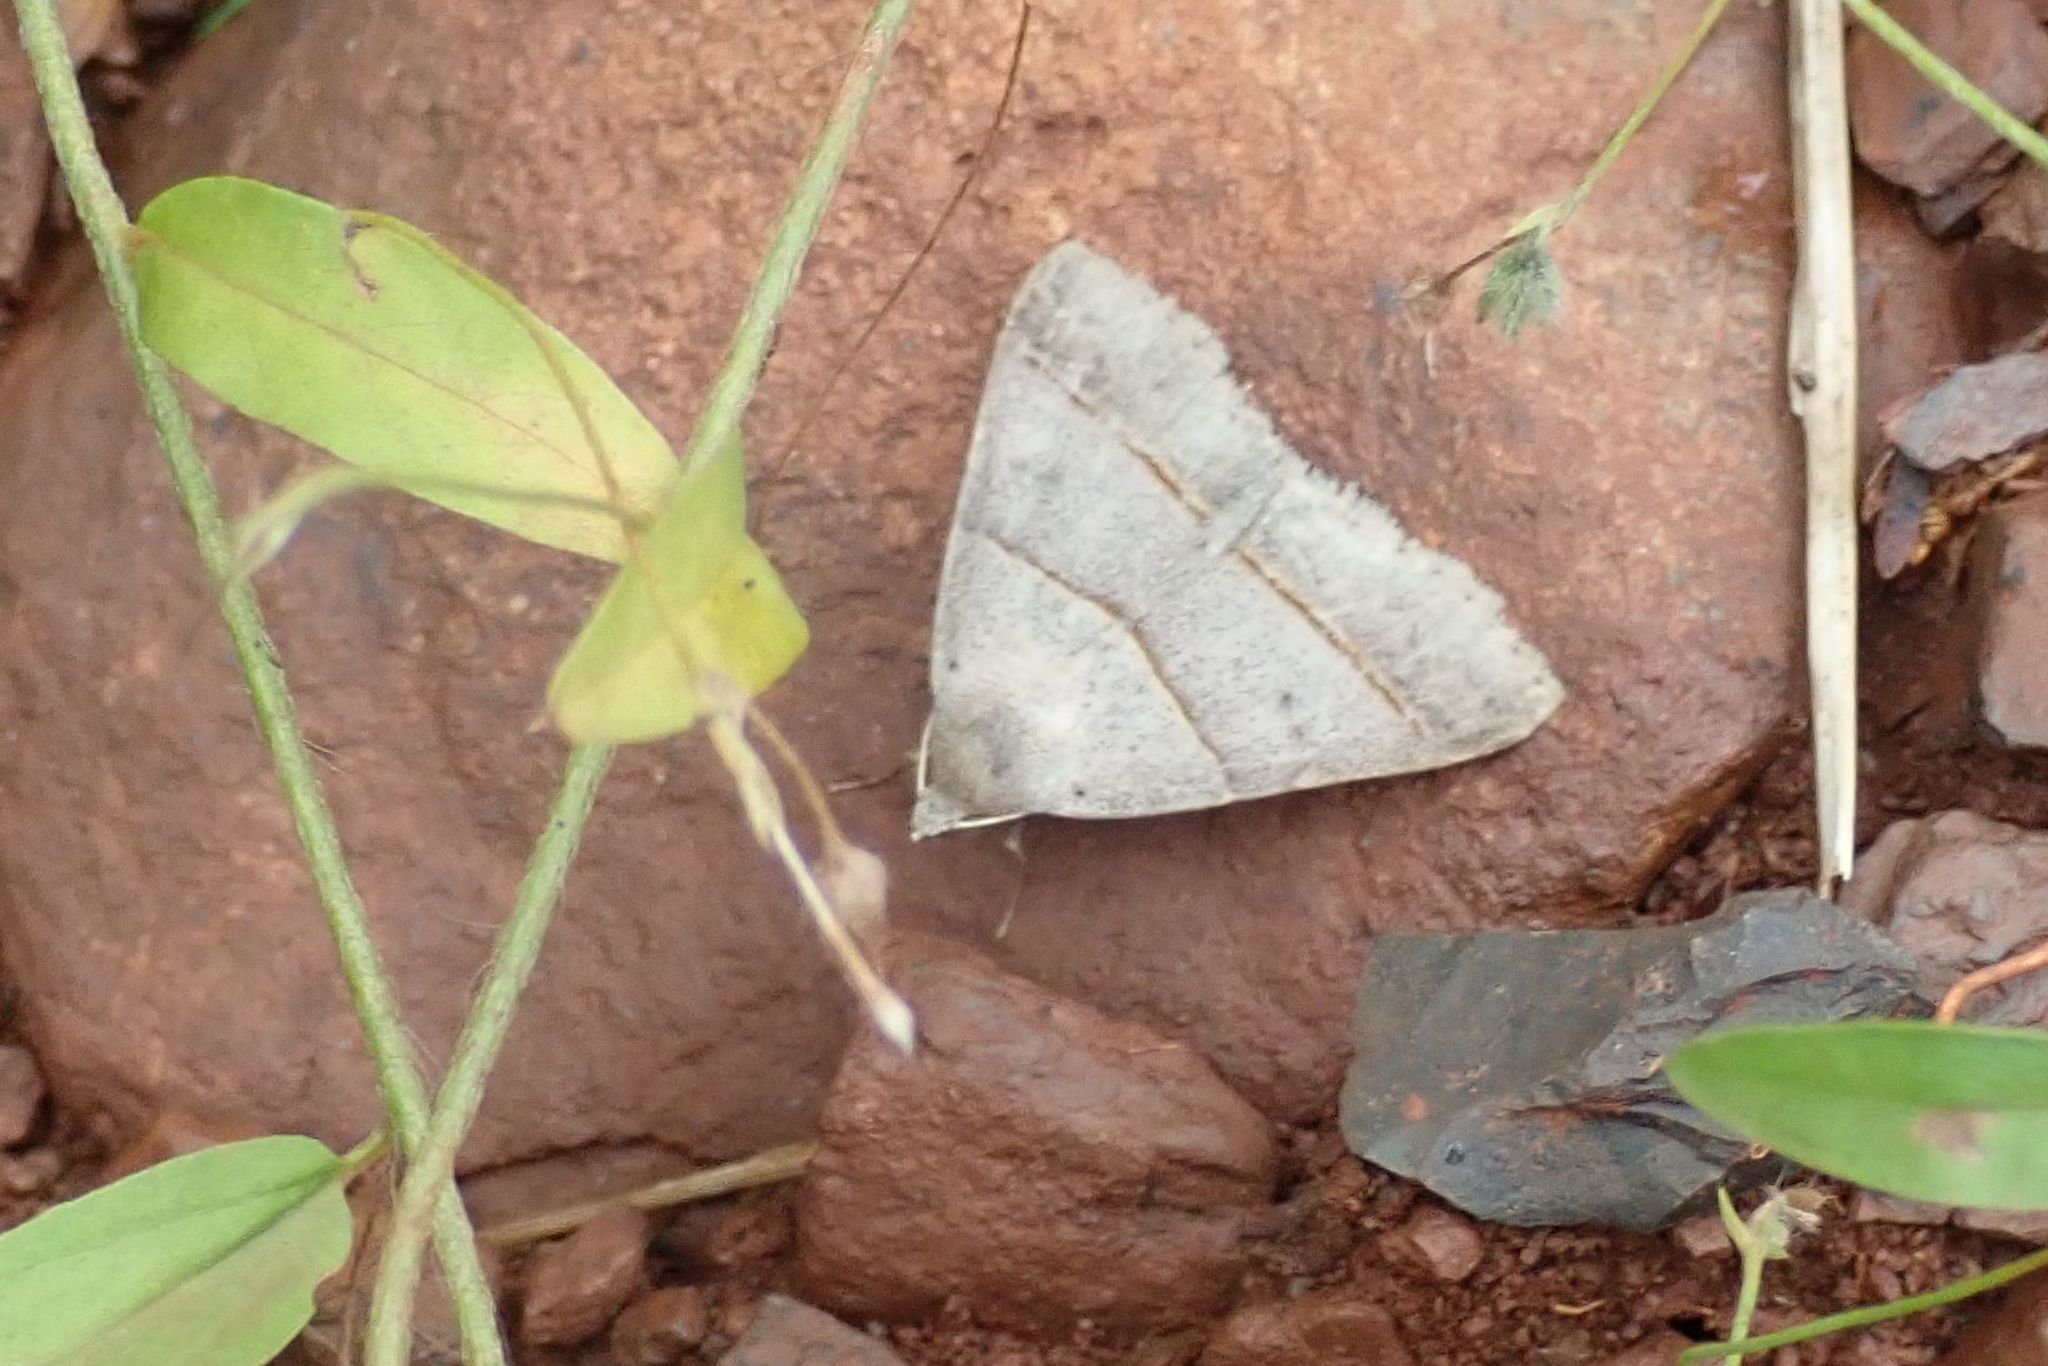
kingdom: Animalia
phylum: Arthropoda
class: Insecta
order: Lepidoptera
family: Erebidae
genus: Plecoptera
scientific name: Plecoptera laniata
